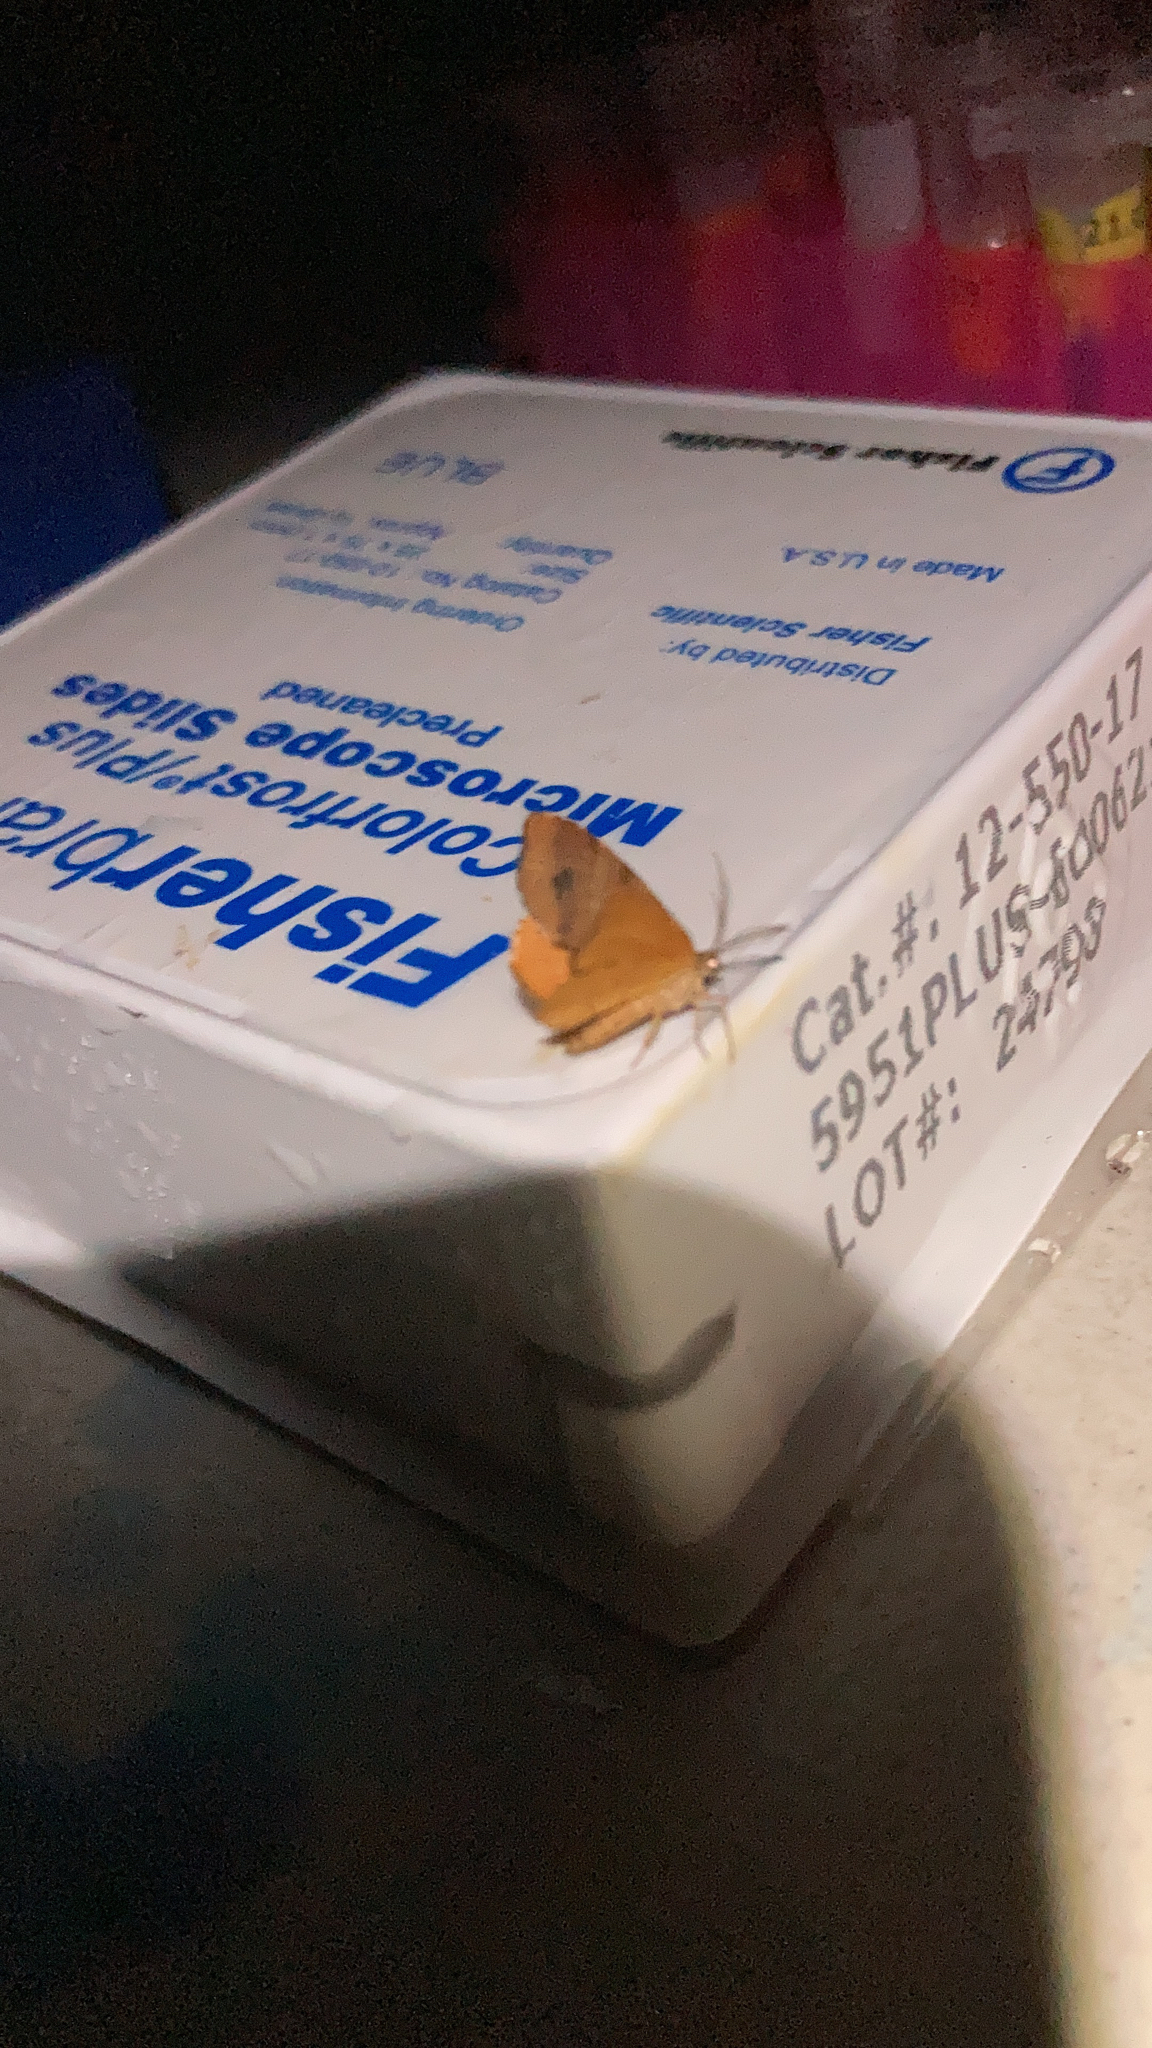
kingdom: Animalia
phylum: Arthropoda
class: Insecta
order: Lepidoptera
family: Geometridae
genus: Mellilla
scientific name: Mellilla xanthometata
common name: Orange wing moth
